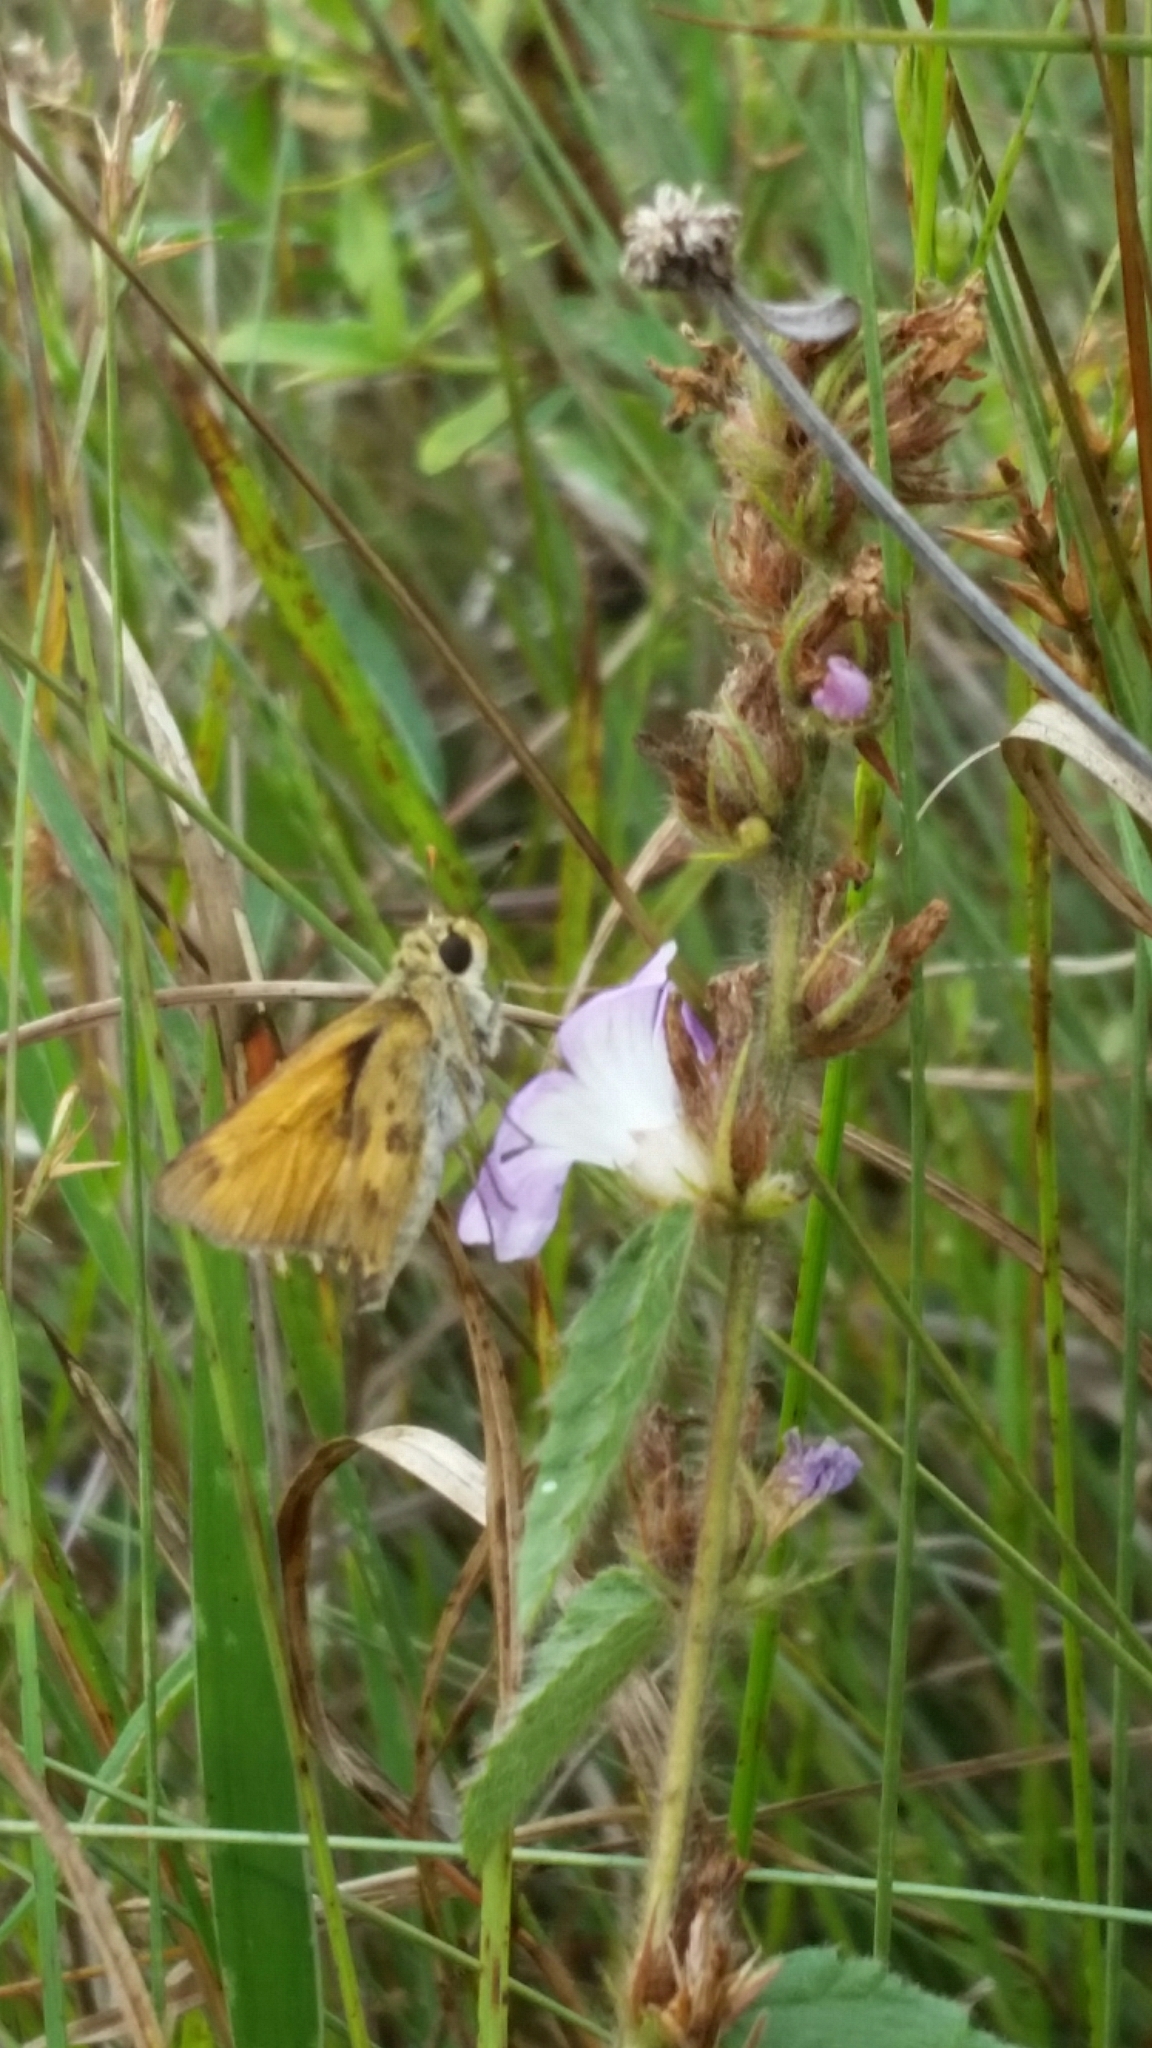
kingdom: Animalia
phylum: Arthropoda
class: Insecta
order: Lepidoptera
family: Hesperiidae
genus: Polites
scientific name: Polites vibex
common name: Whirlabout
